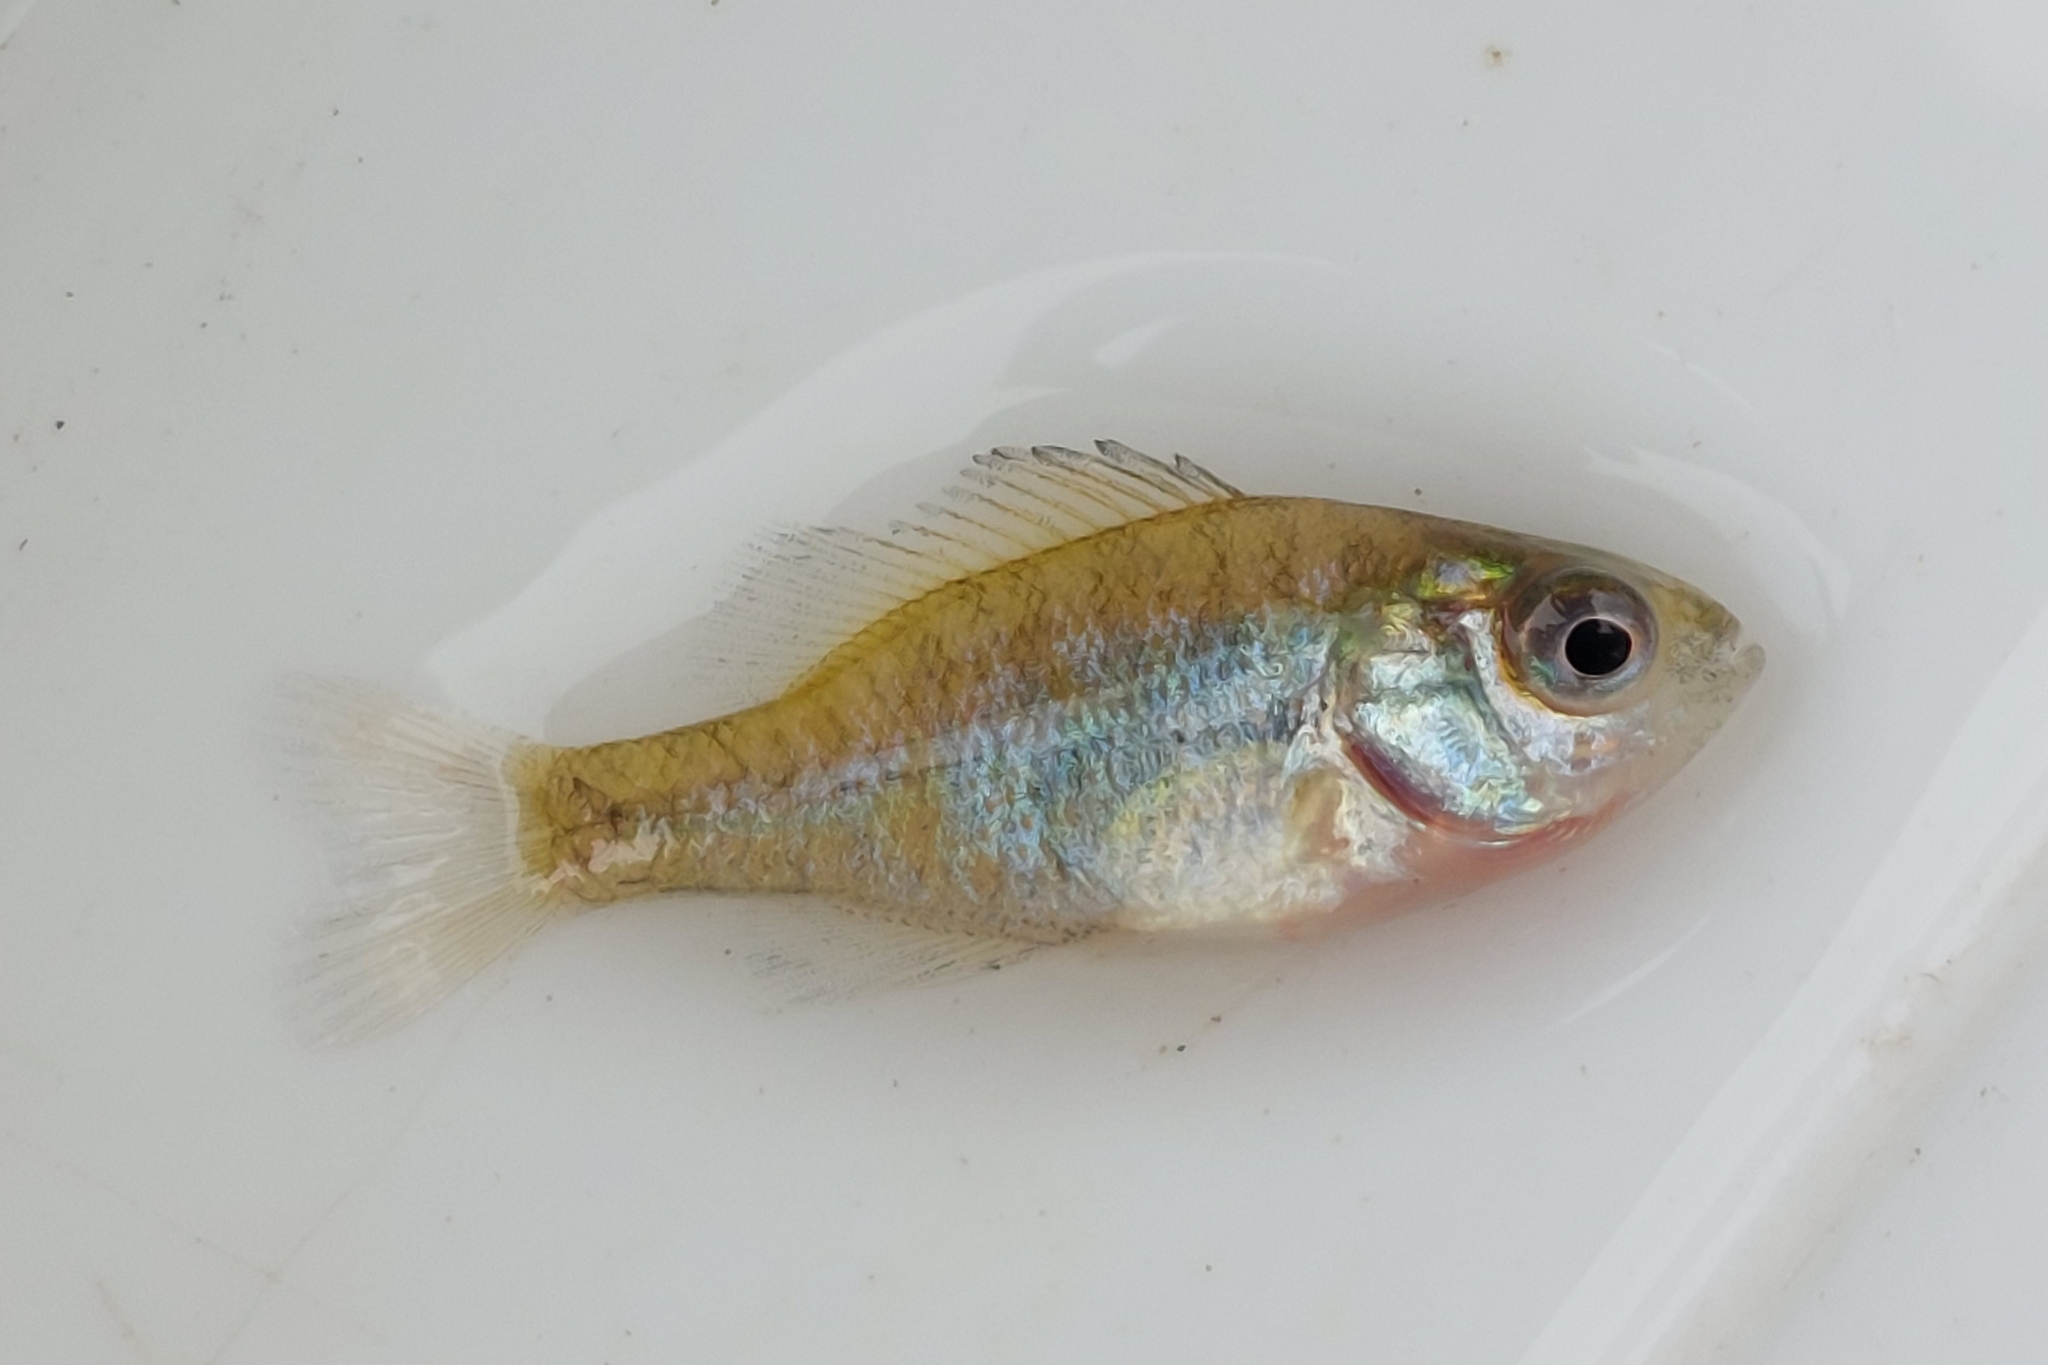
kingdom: Animalia
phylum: Chordata
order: Perciformes
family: Centrarchidae
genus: Lepomis
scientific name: Lepomis gibbosus
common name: Pumpkinseed
